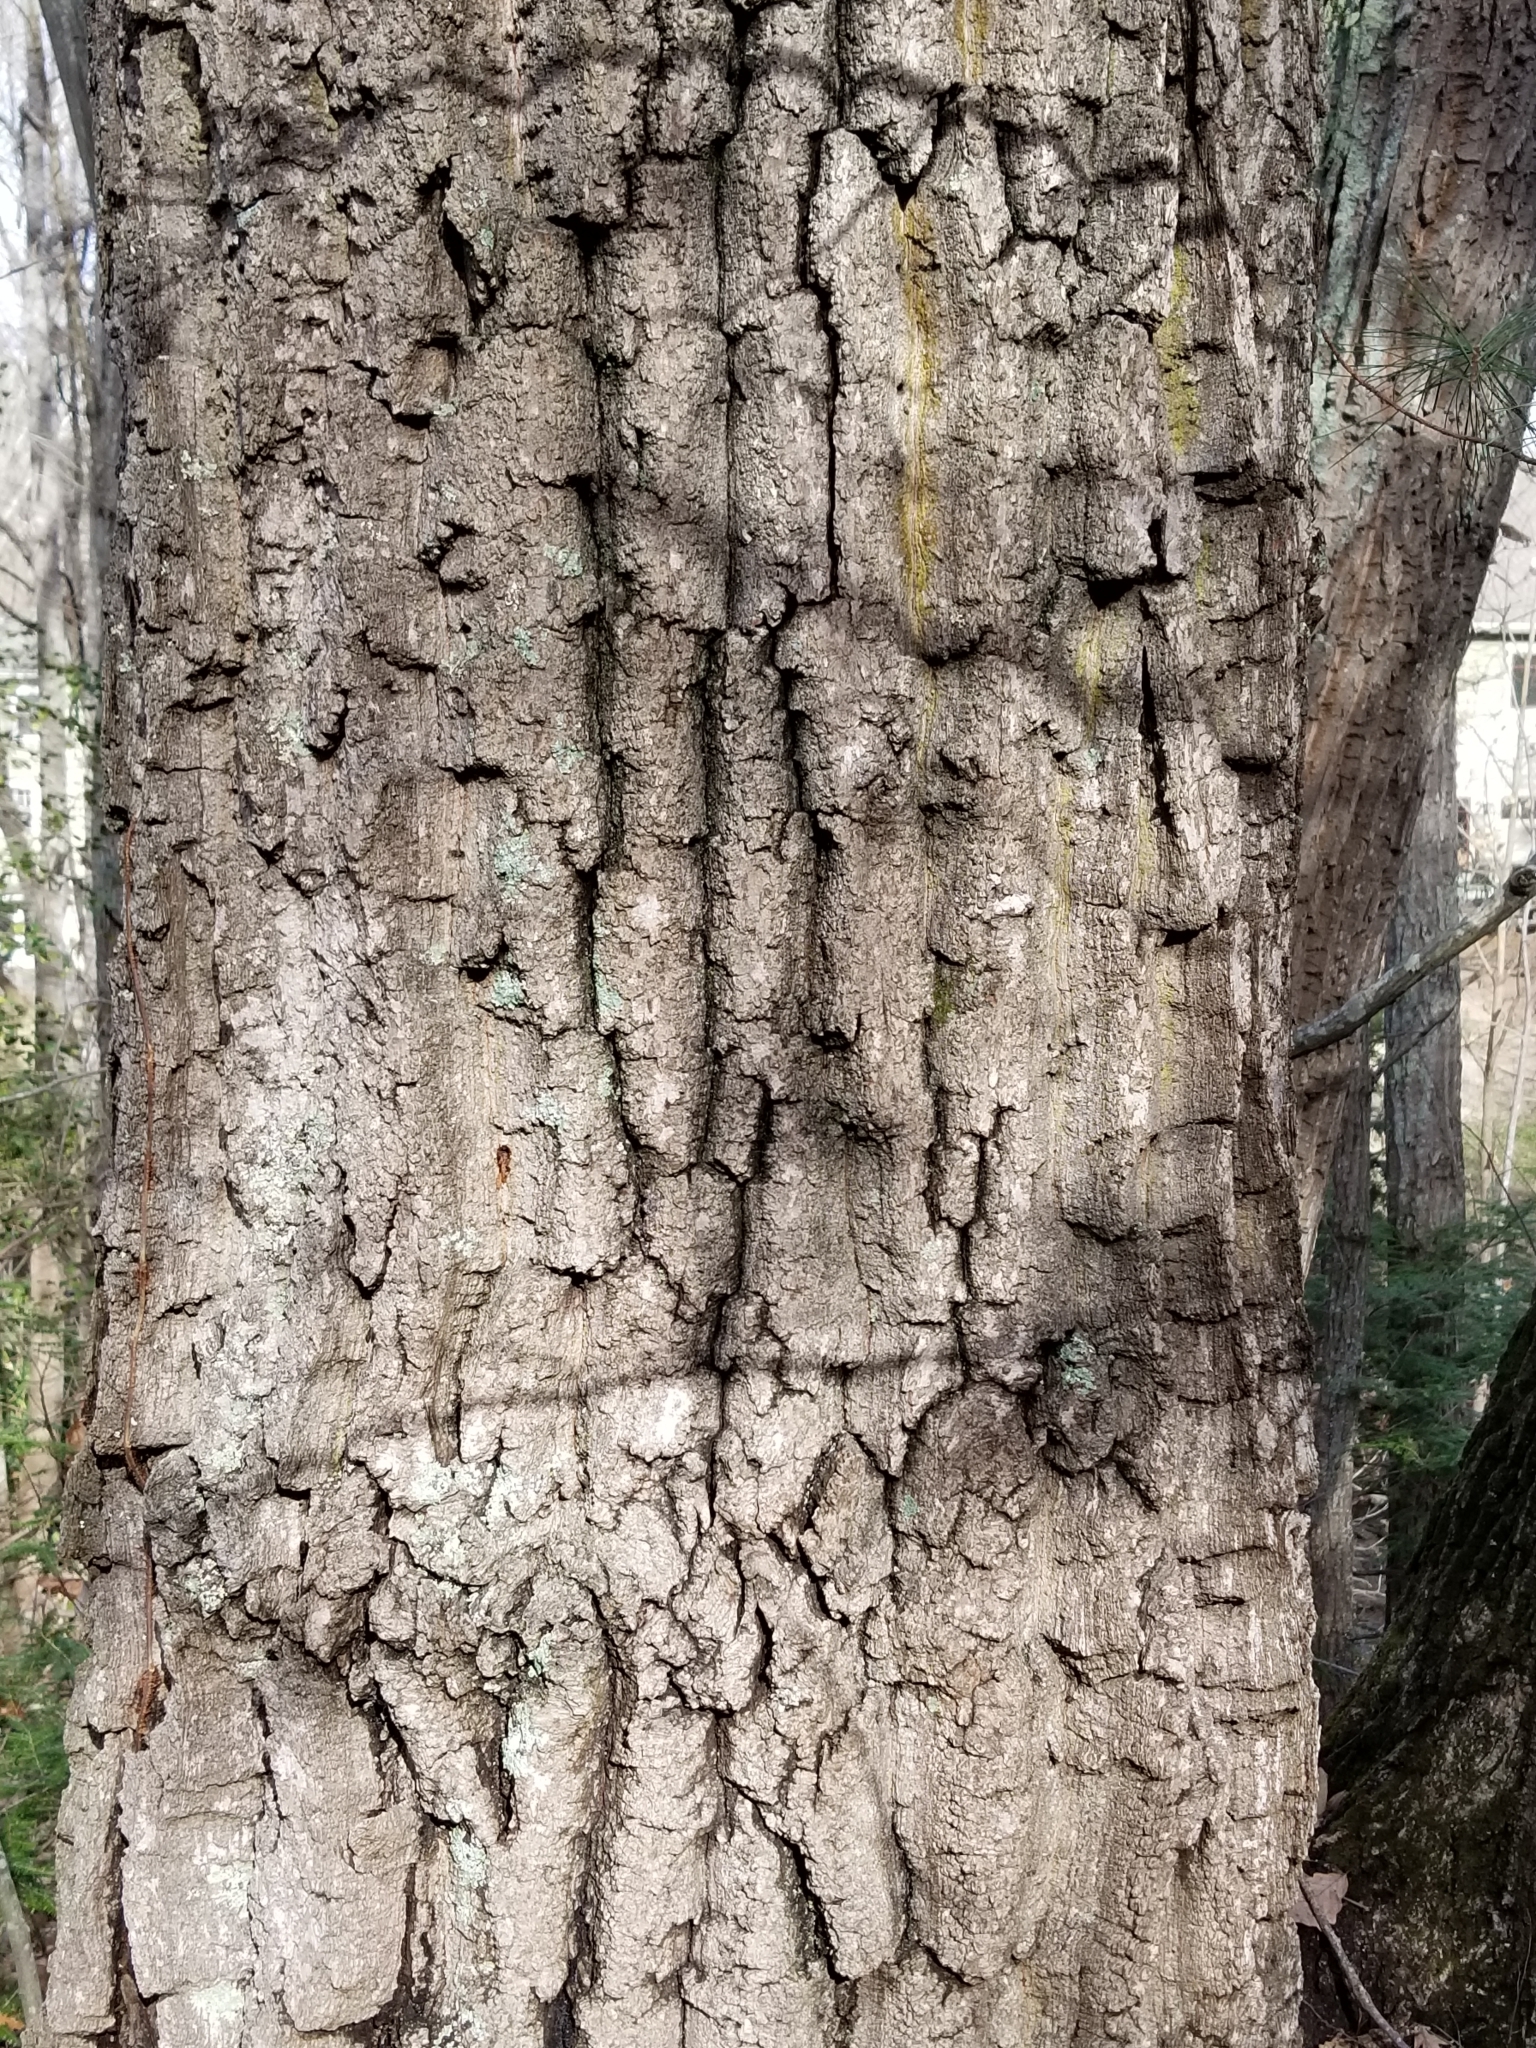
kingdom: Plantae
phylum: Tracheophyta
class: Pinopsida
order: Pinales
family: Pinaceae
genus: Pinus
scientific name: Pinus strobus
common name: Weymouth pine
